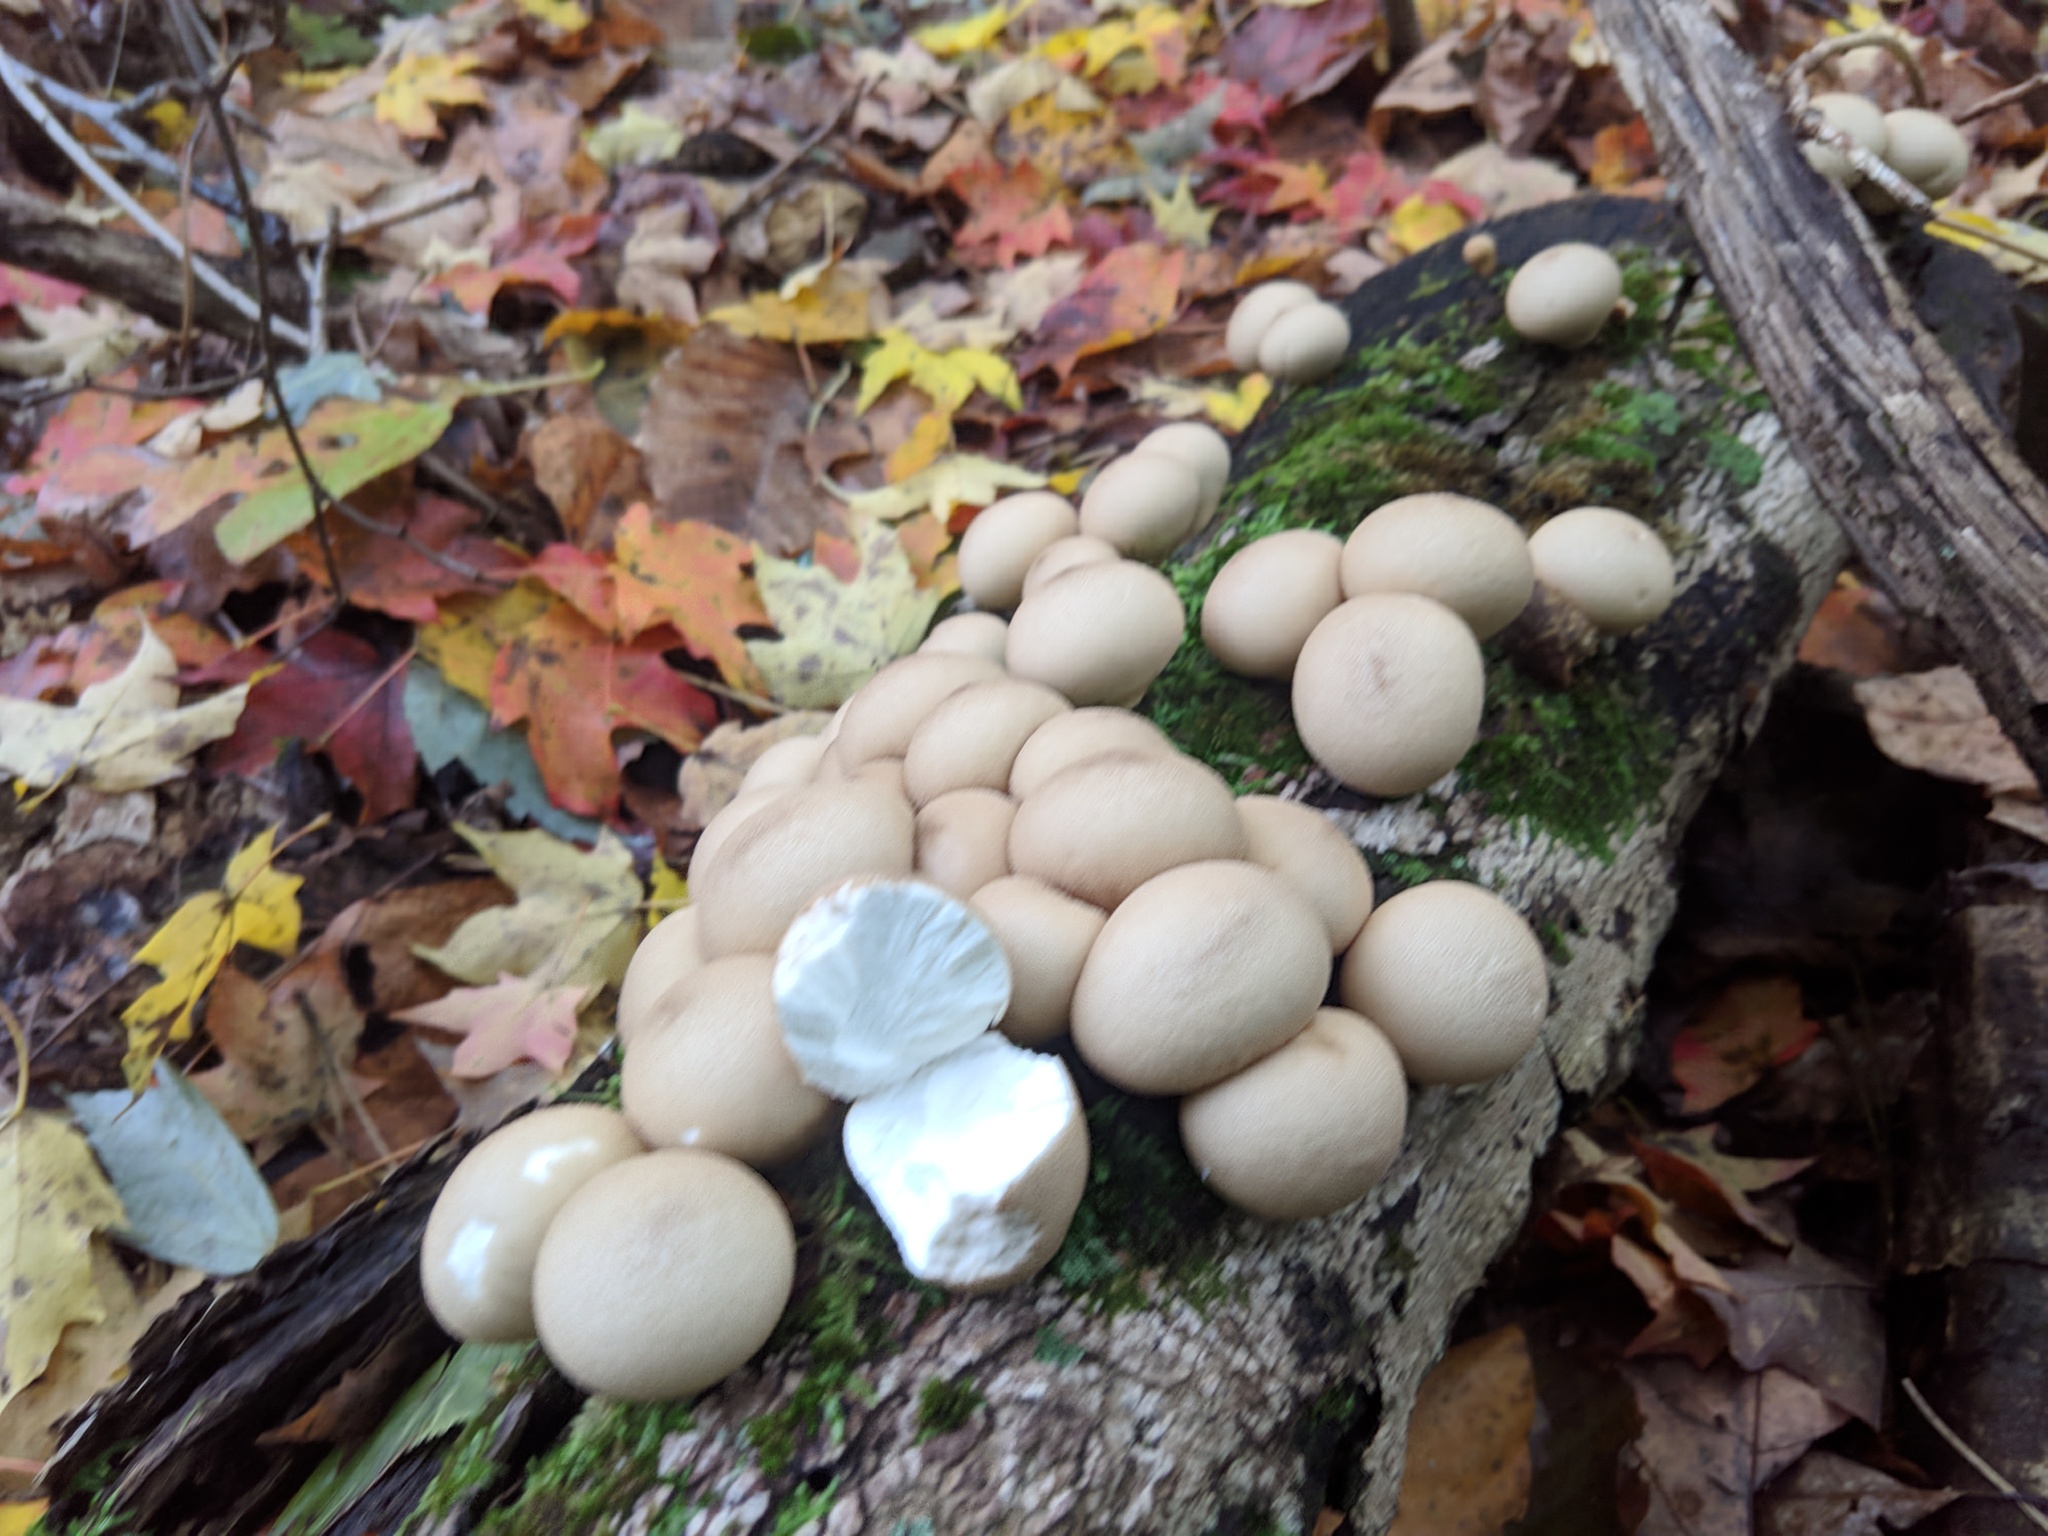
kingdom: Fungi
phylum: Basidiomycota
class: Agaricomycetes
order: Agaricales
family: Lycoperdaceae
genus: Apioperdon
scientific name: Apioperdon pyriforme
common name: Pear-shaped puffball
